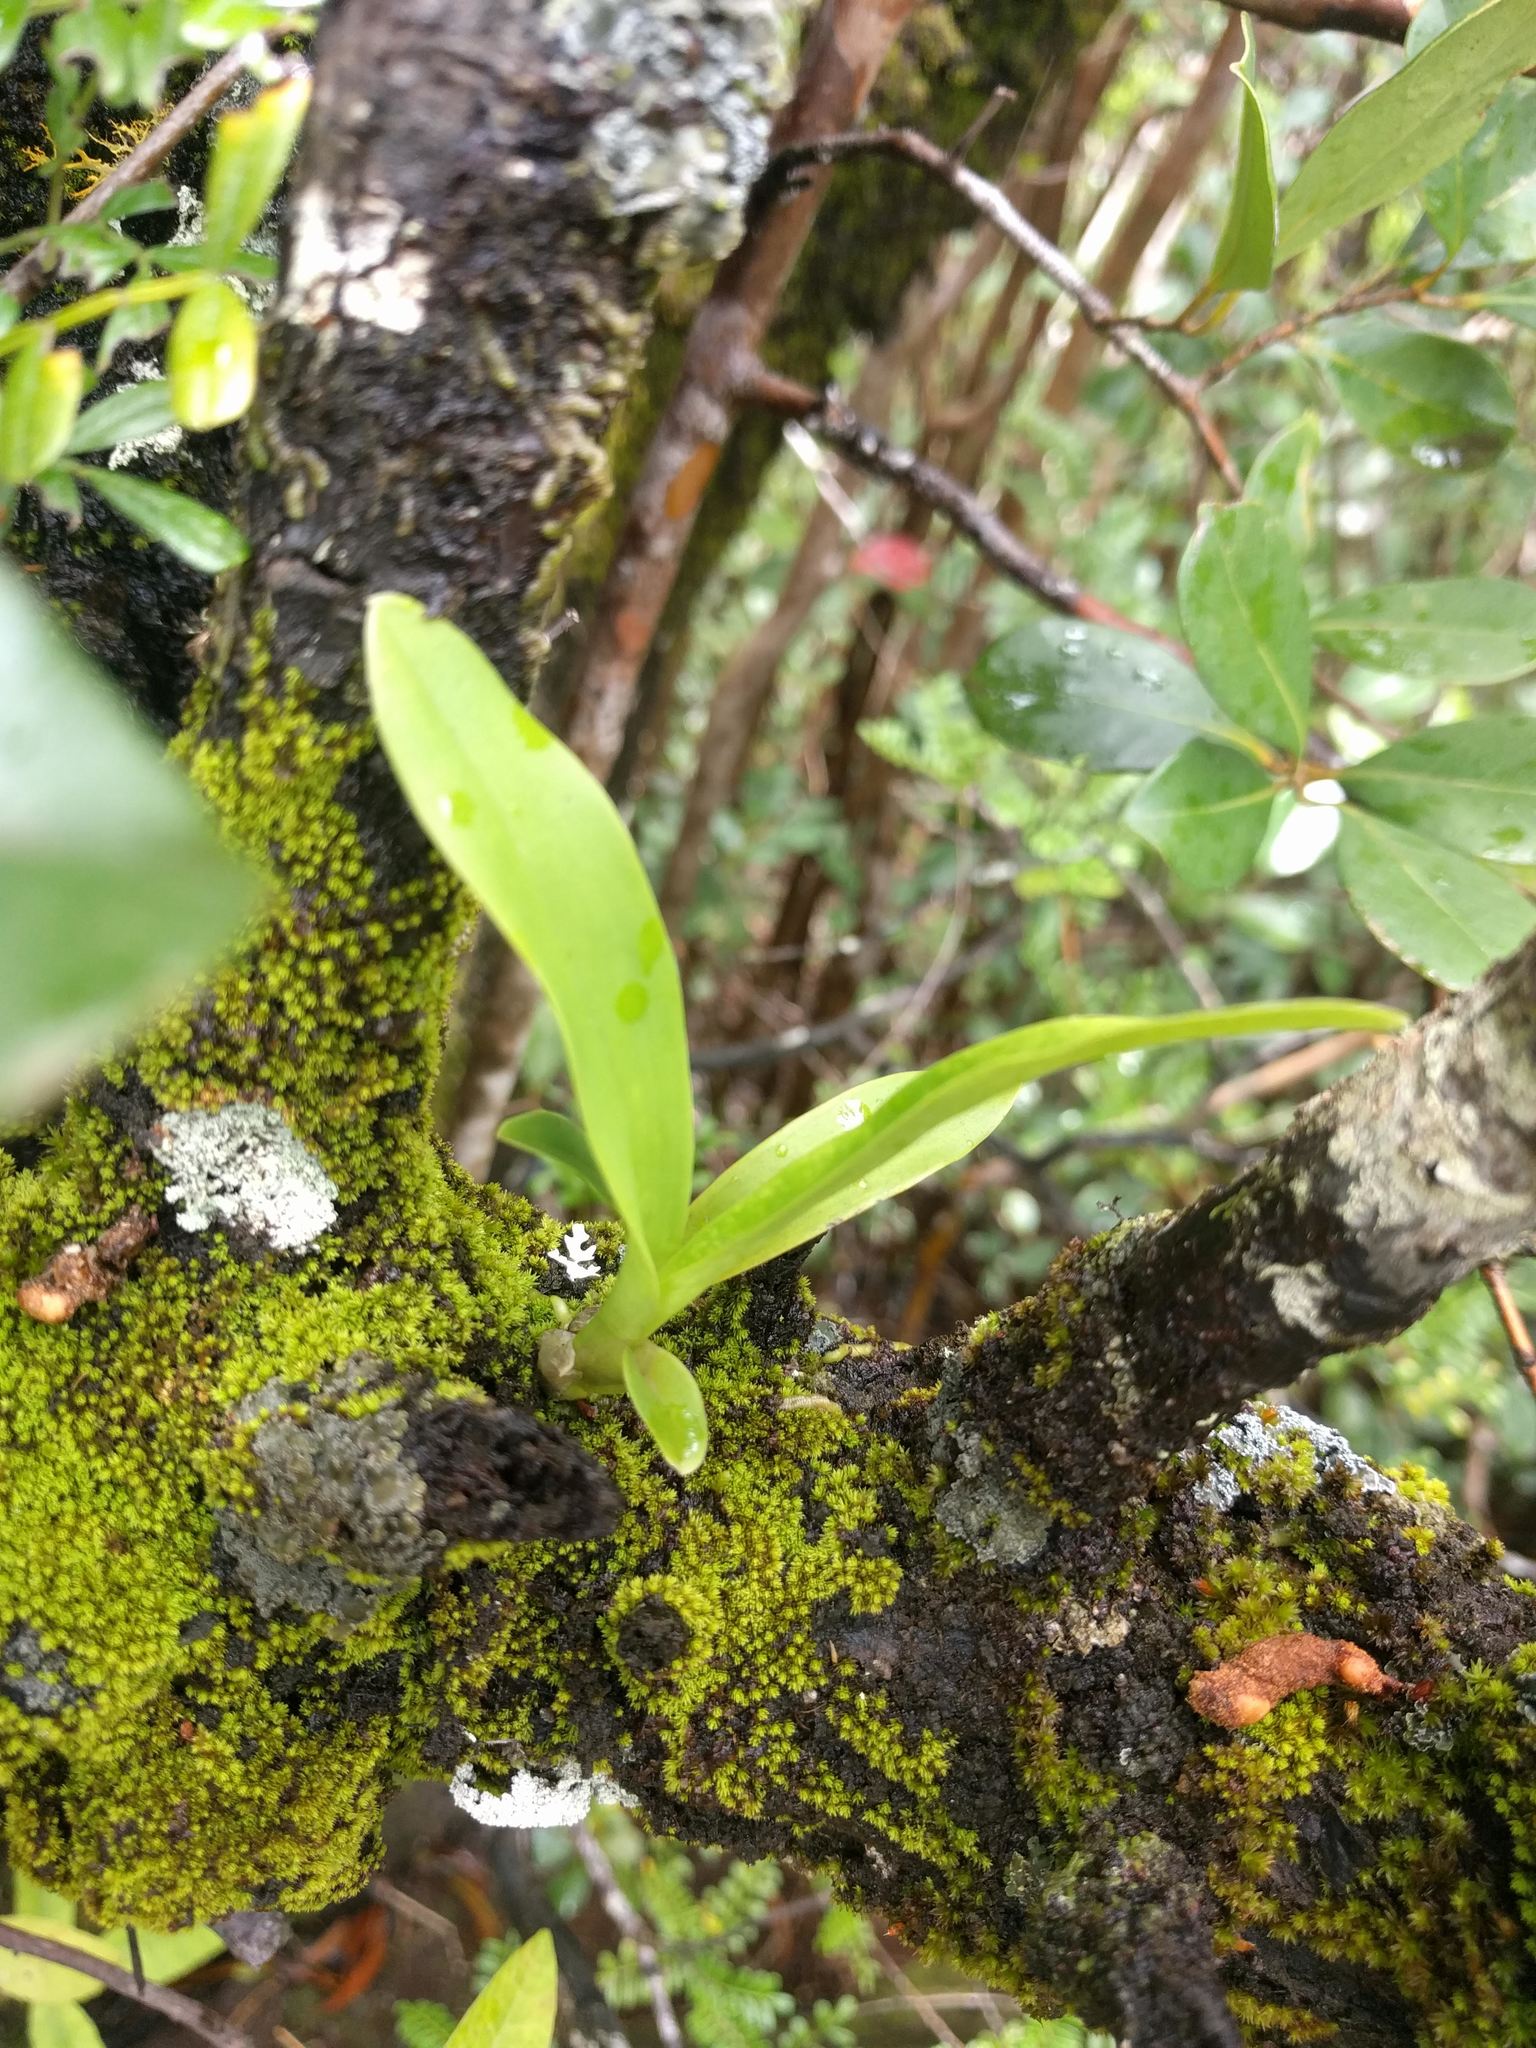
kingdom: Plantae
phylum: Tracheophyta
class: Liliopsida
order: Asparagales
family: Orchidaceae
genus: Polystachya
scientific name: Polystachya concreta
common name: Greater yellowspike orchid
